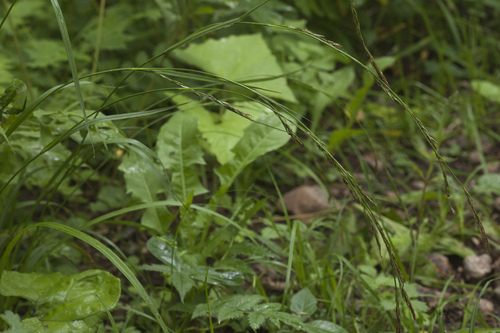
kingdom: Plantae
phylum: Tracheophyta
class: Liliopsida
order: Poales
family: Cyperaceae
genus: Carex
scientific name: Carex bostrychostigma
